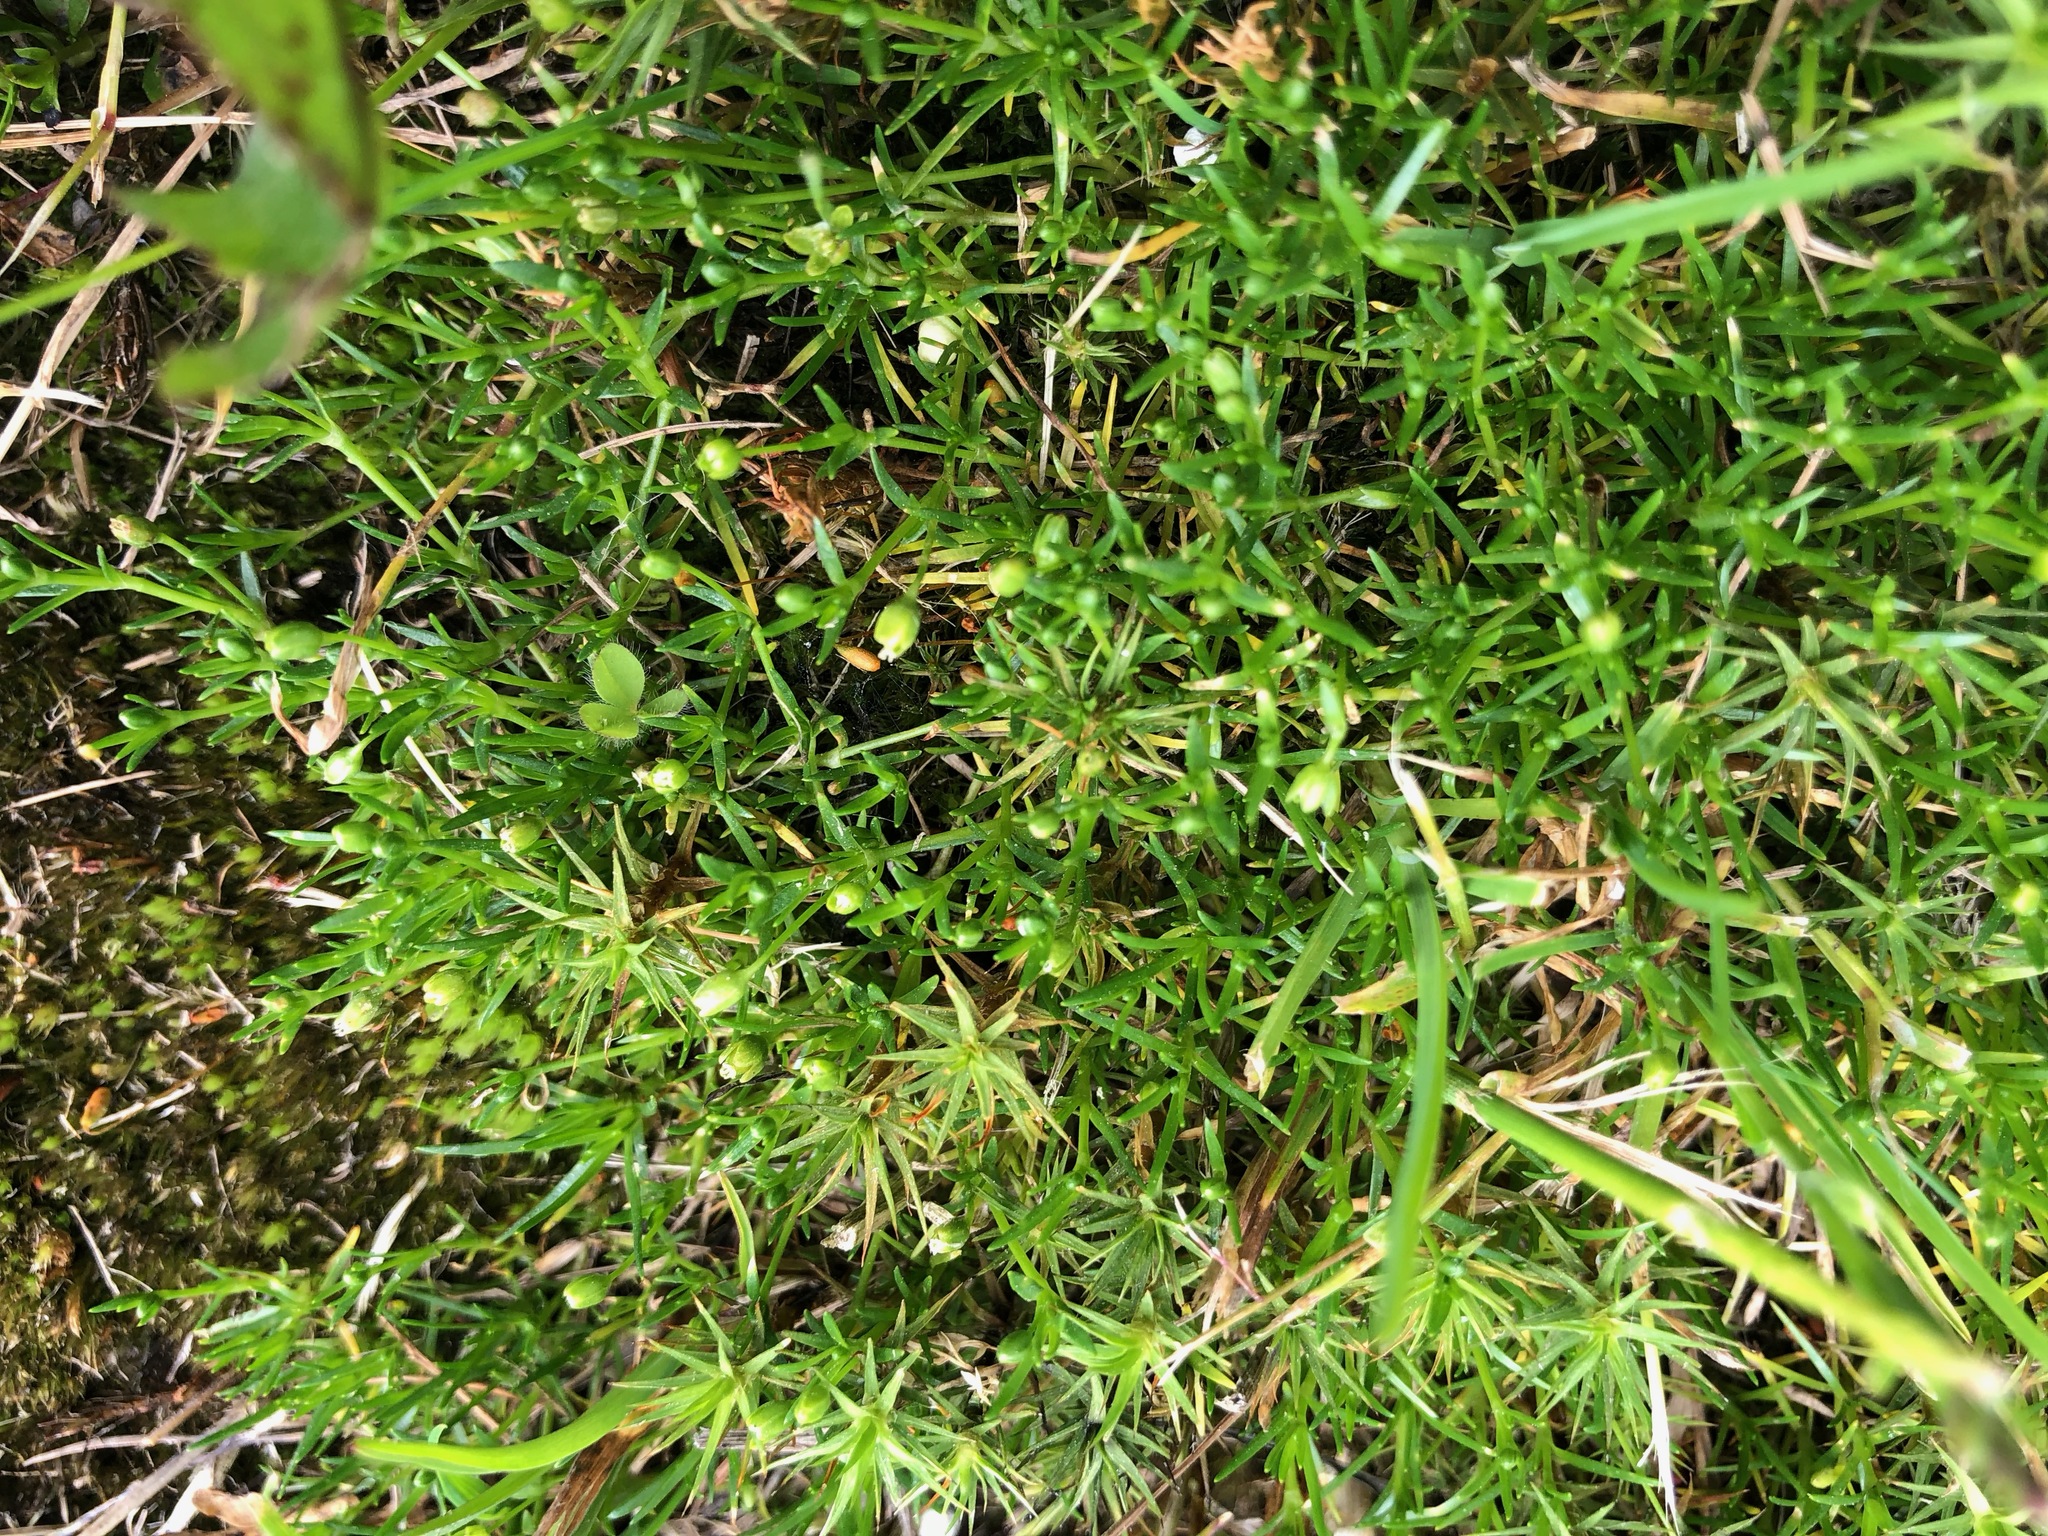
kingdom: Plantae
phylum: Tracheophyta
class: Magnoliopsida
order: Caryophyllales
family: Caryophyllaceae
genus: Sagina
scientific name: Sagina saginoides
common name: Alpine pearlwort
